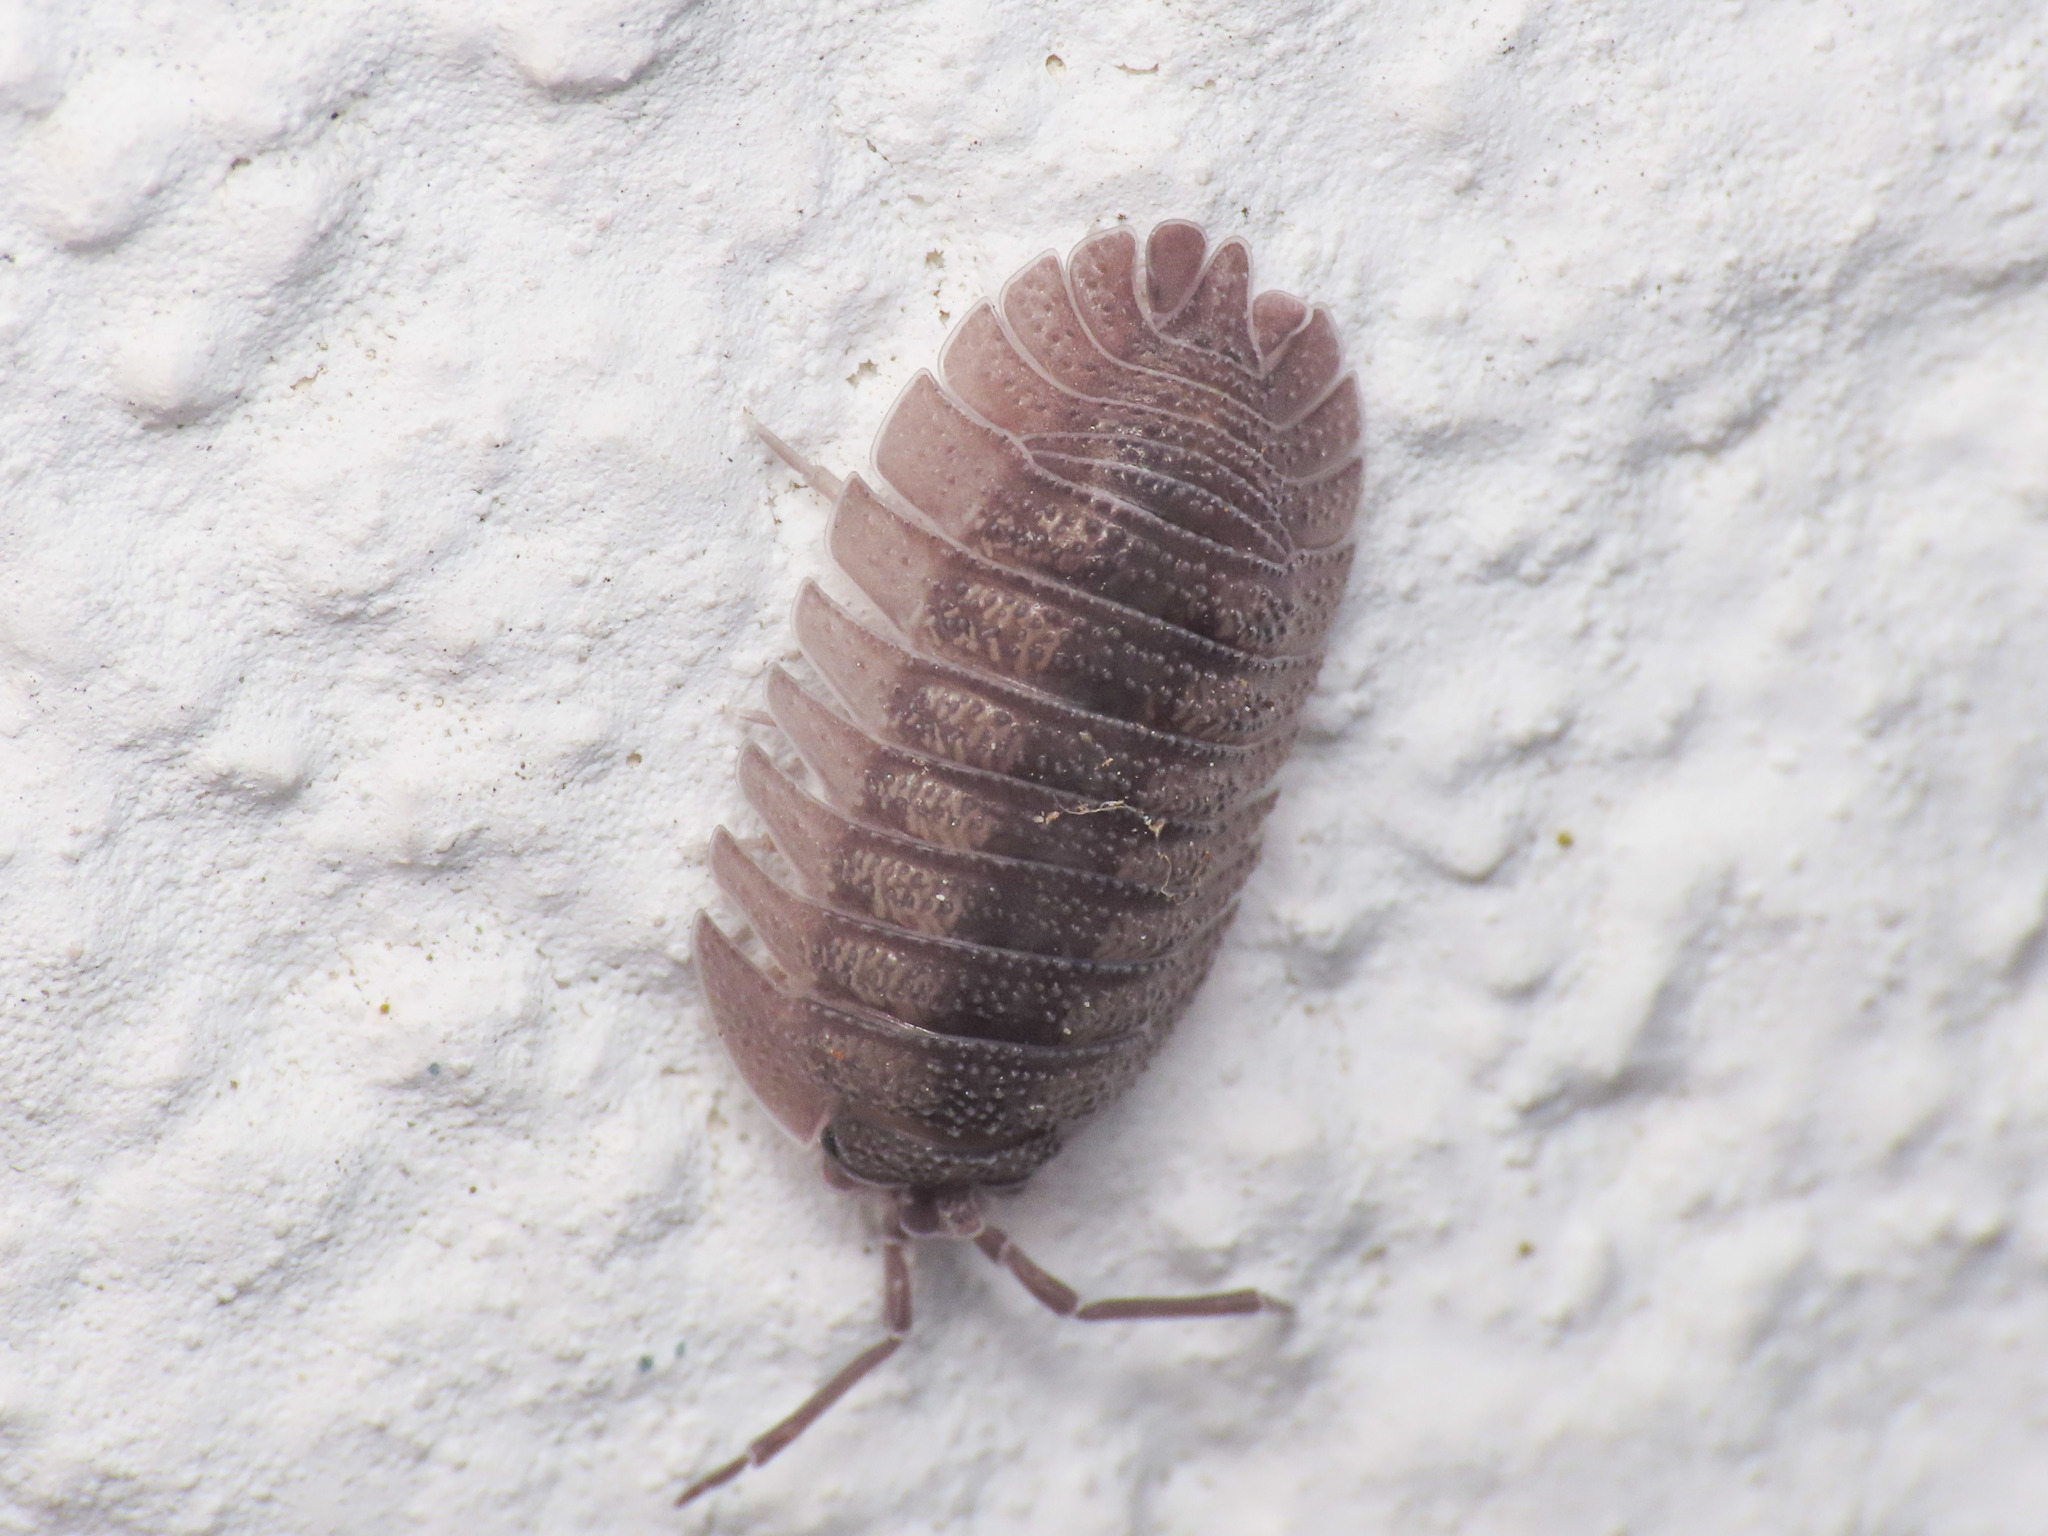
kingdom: Animalia
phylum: Arthropoda
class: Malacostraca
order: Isopoda
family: Armadillidiidae
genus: Armadillidium
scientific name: Armadillidium peraccae
